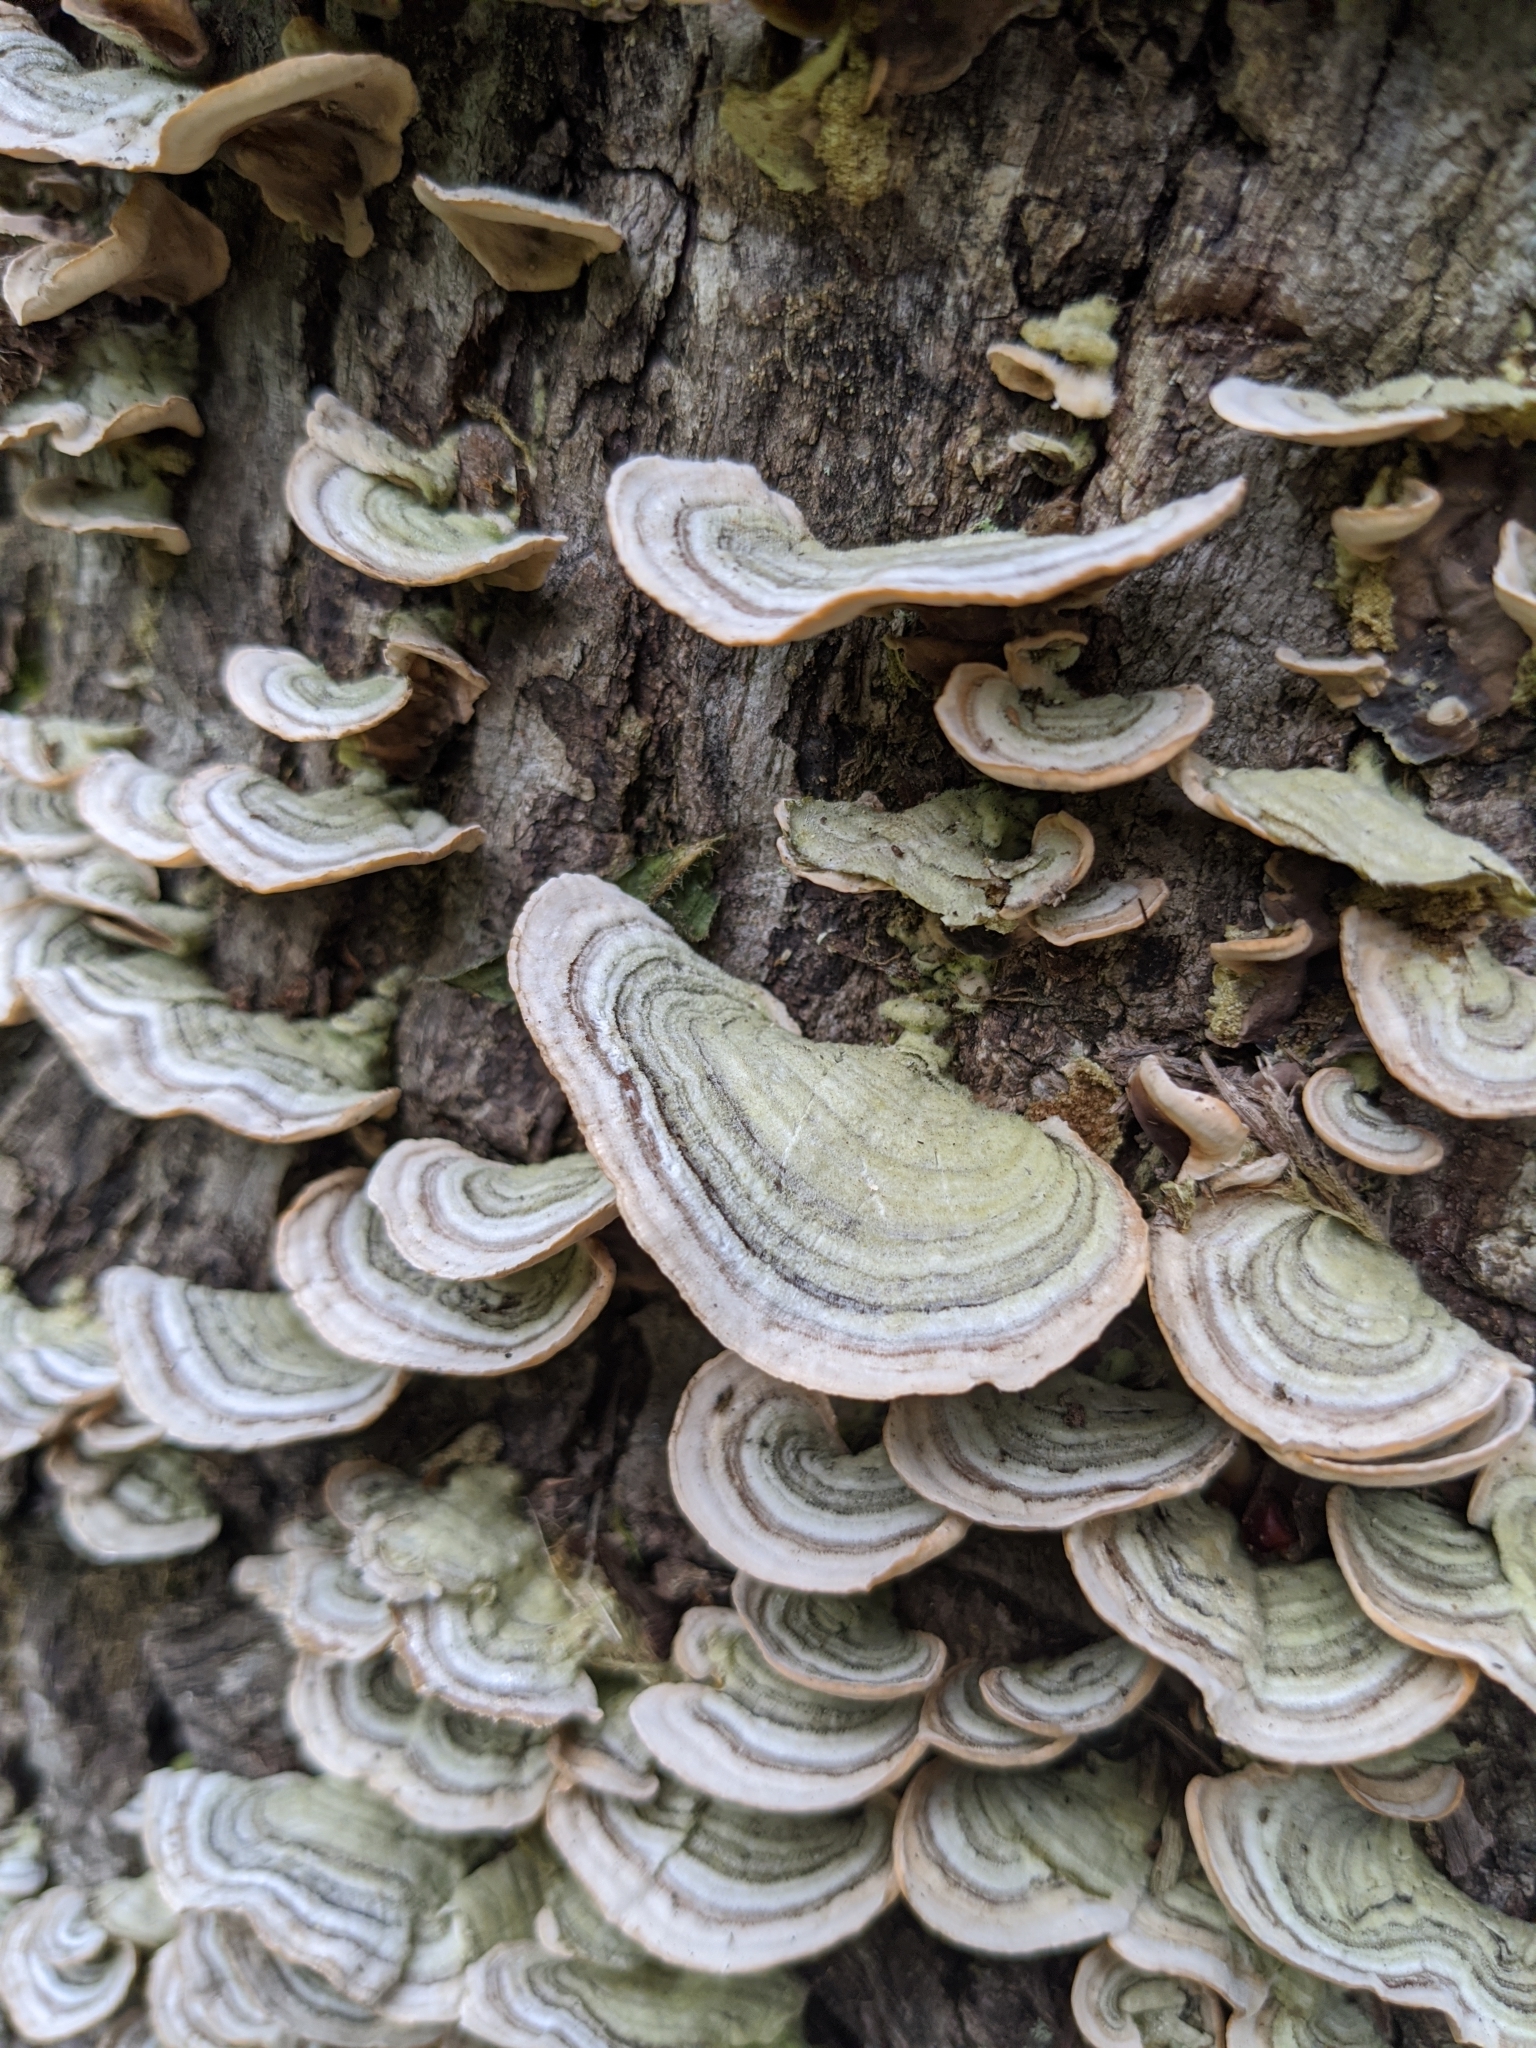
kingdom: Fungi
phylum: Basidiomycota
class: Agaricomycetes
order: Russulales
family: Stereaceae
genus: Stereum
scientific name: Stereum ostrea
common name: False turkeytail
